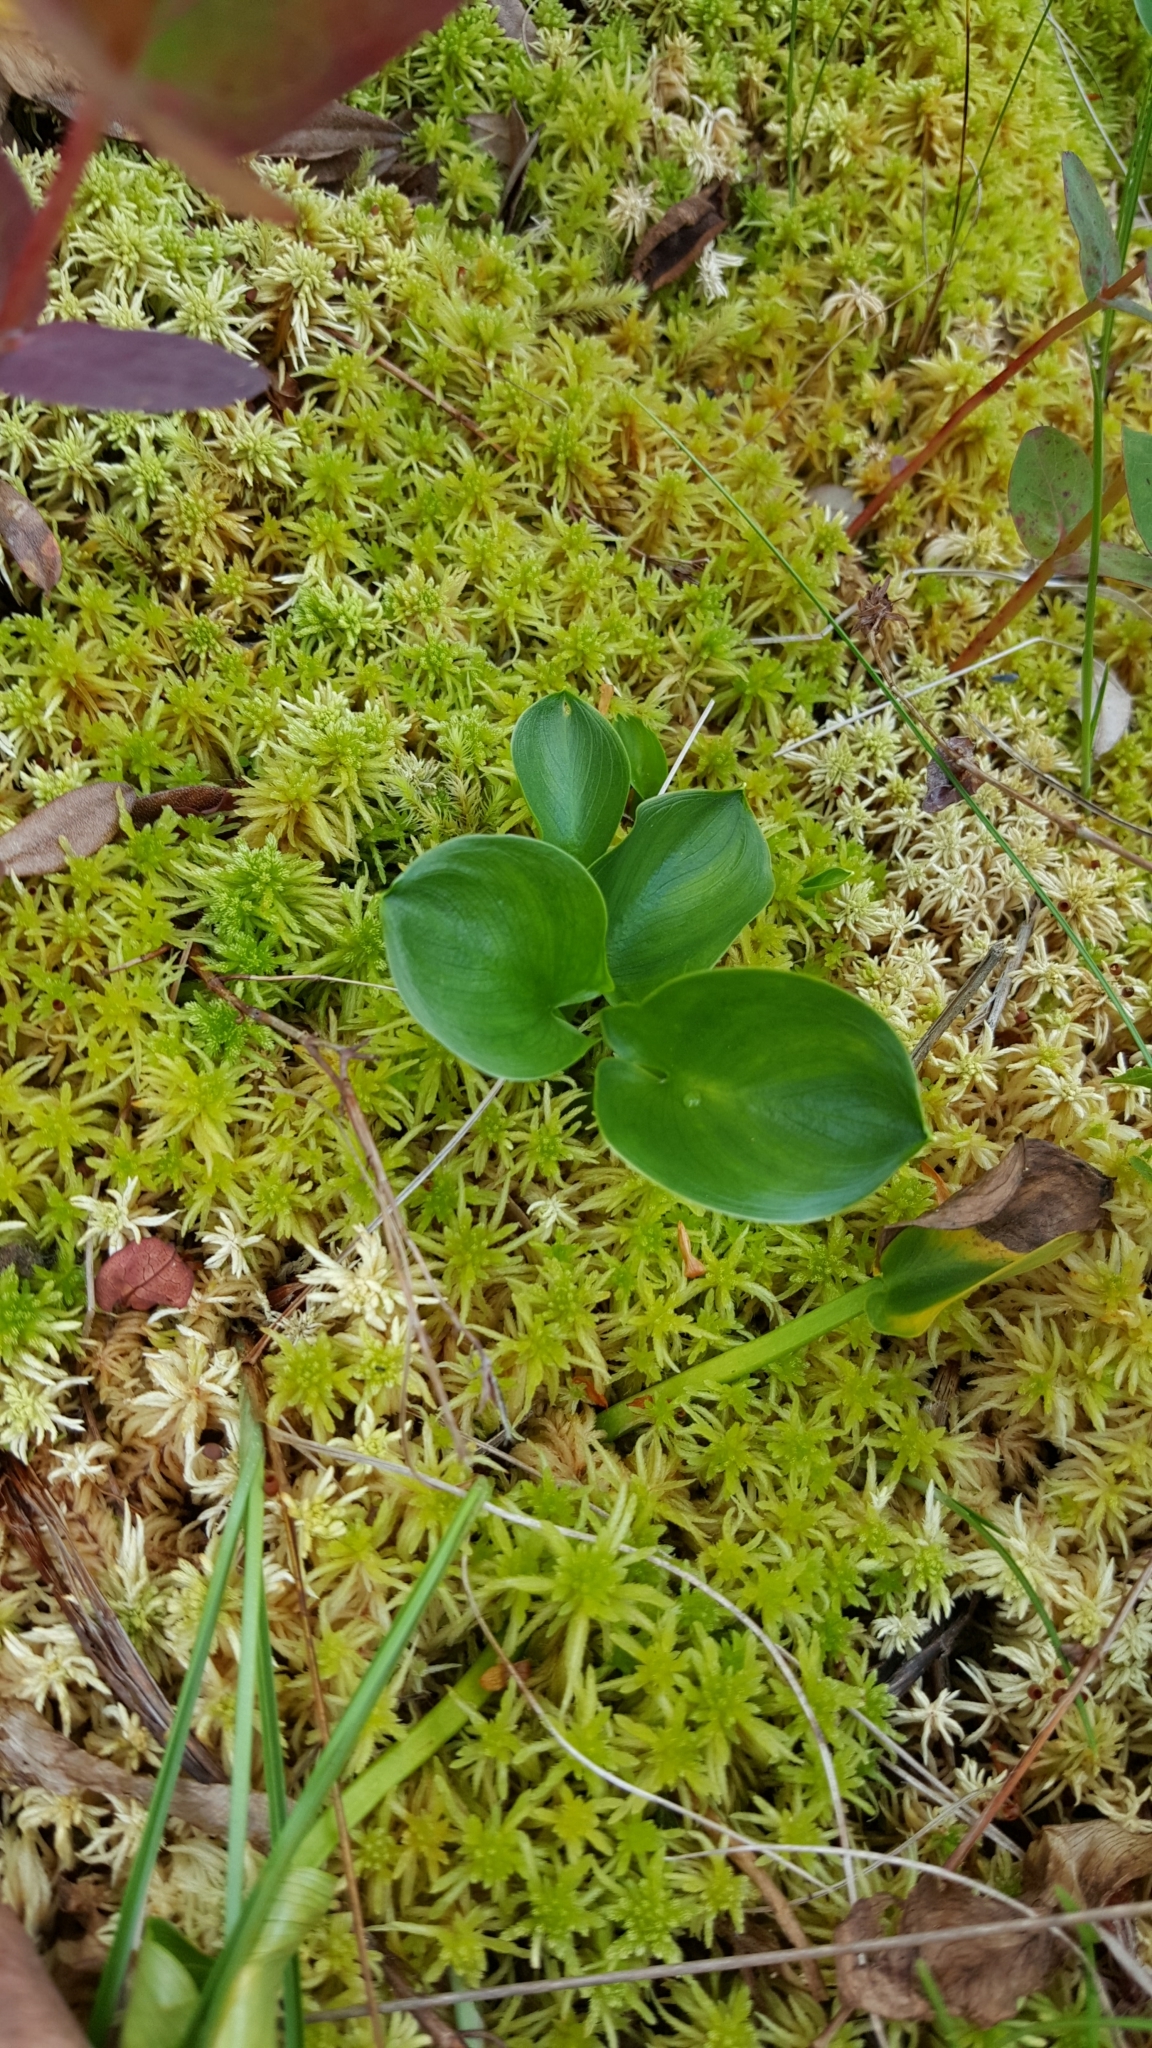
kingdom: Plantae
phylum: Tracheophyta
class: Liliopsida
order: Alismatales
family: Araceae
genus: Calla
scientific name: Calla palustris
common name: Bog arum
